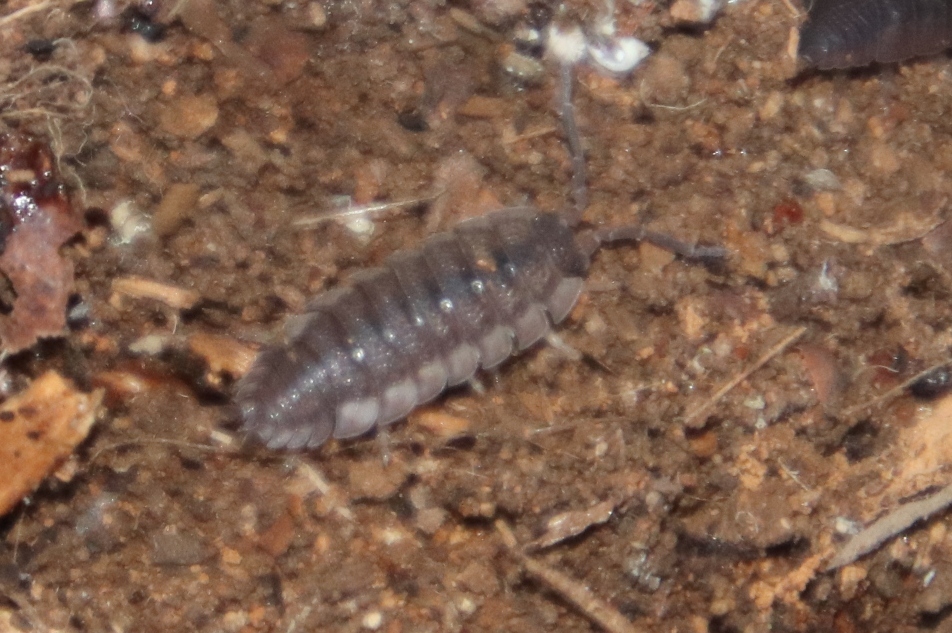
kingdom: Animalia
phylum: Arthropoda
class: Malacostraca
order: Isopoda
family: Porcellionidae
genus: Porcellio
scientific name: Porcellio scaber
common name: Common rough woodlouse
